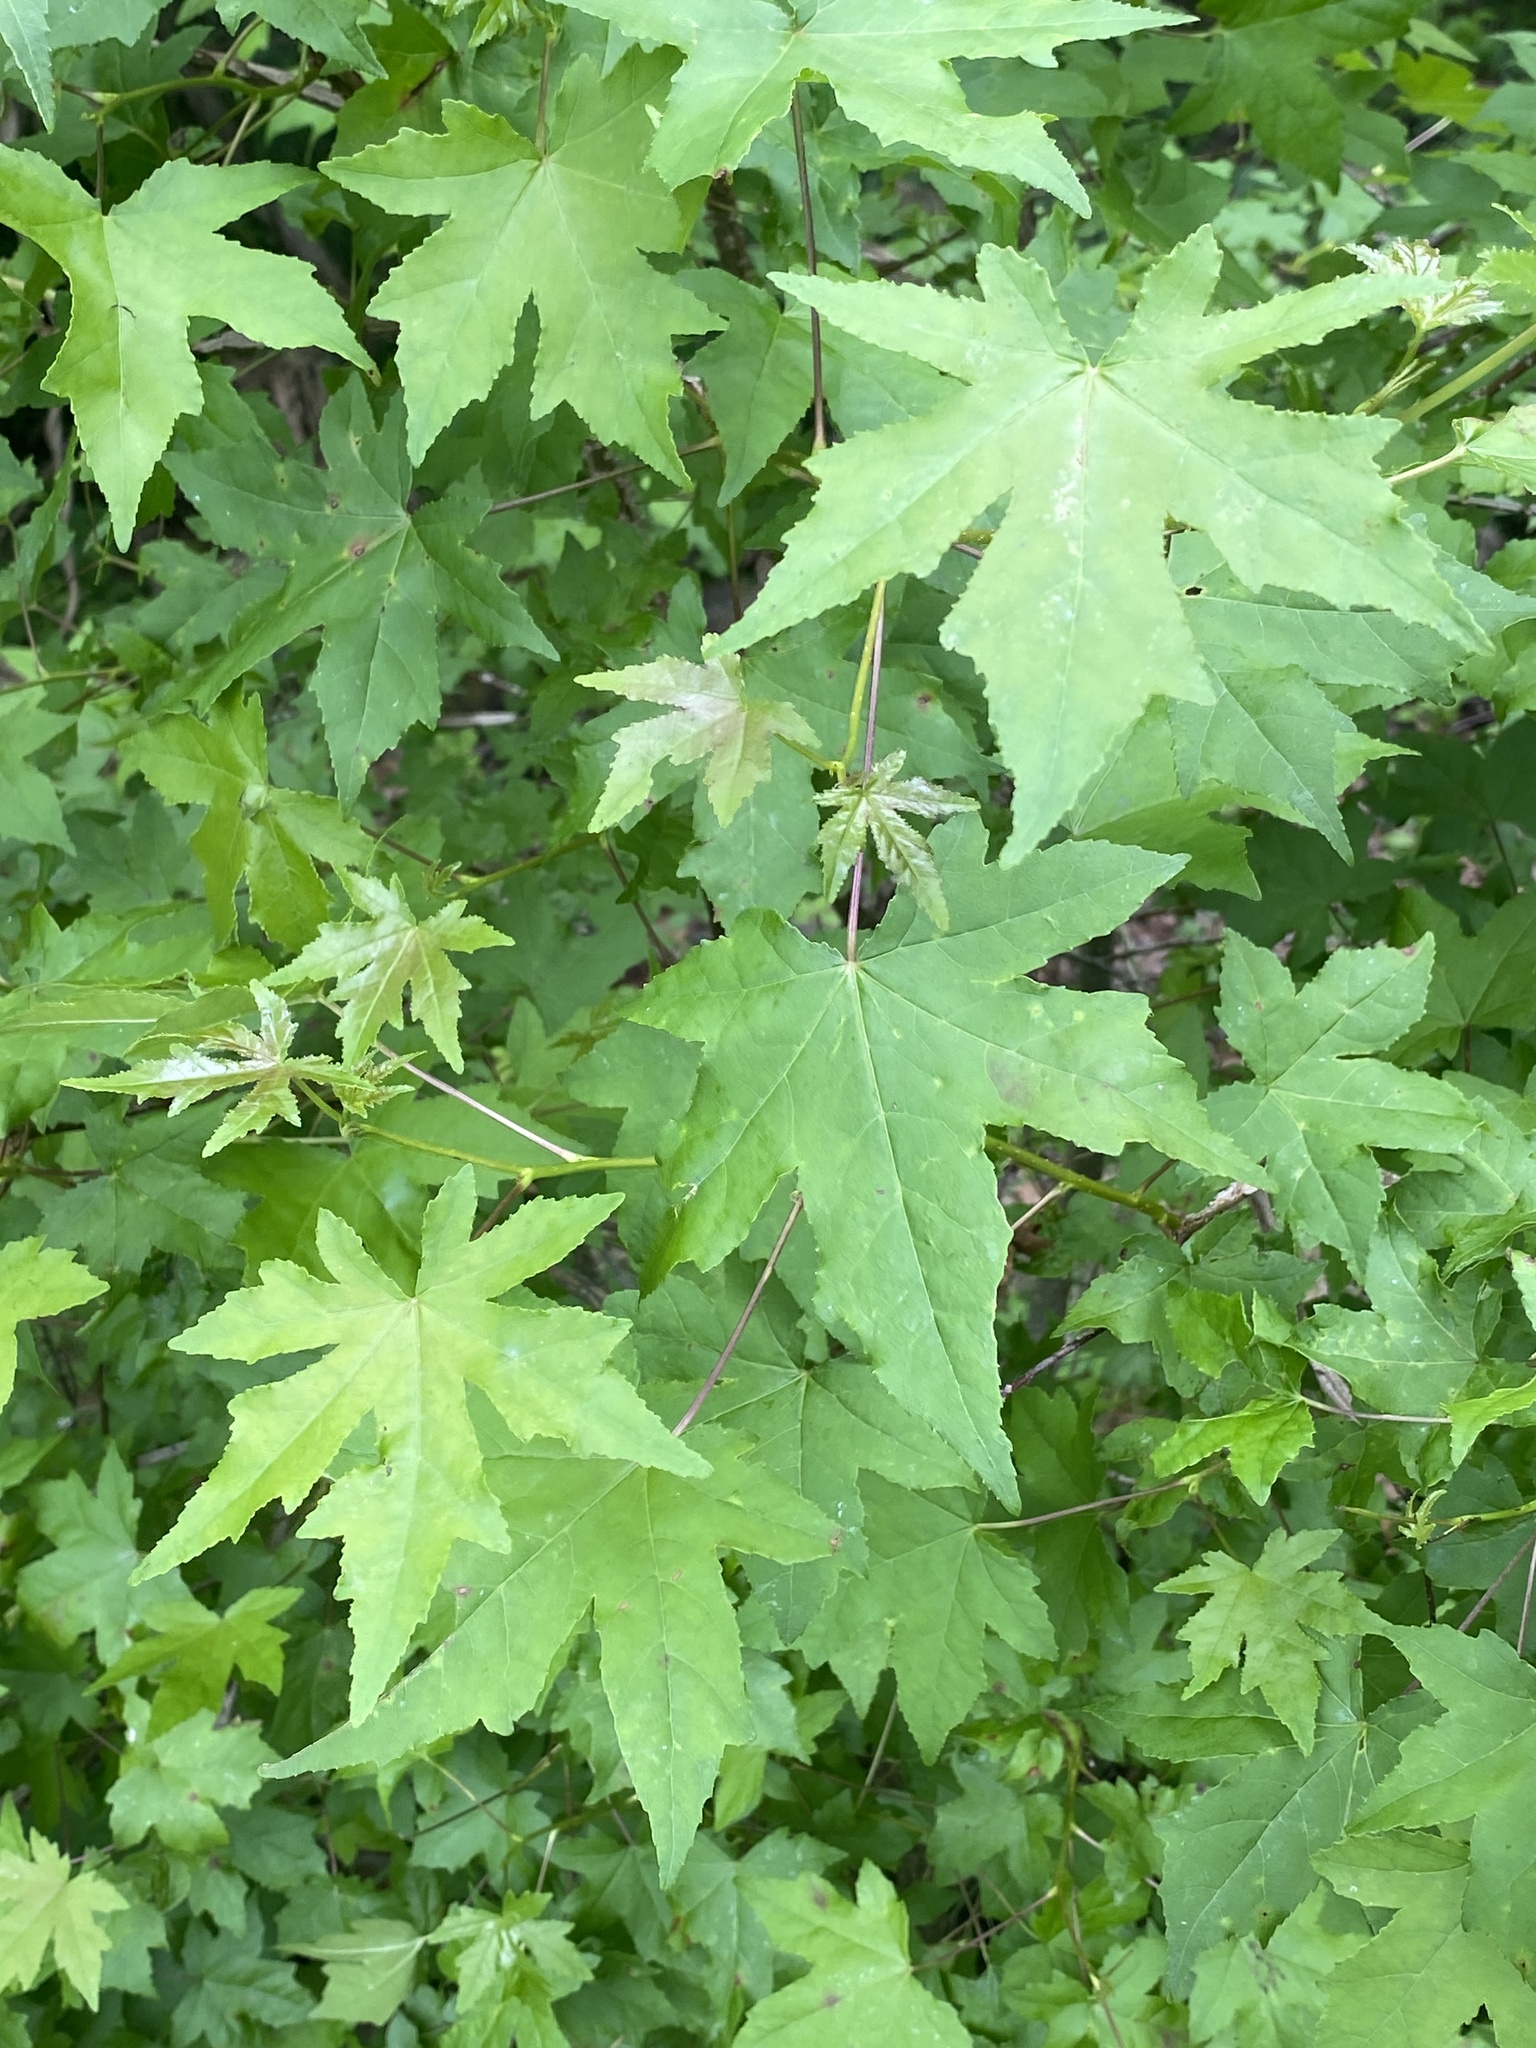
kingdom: Plantae
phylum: Tracheophyta
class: Magnoliopsida
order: Saxifragales
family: Altingiaceae
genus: Liquidambar
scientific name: Liquidambar styraciflua
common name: Sweet gum
